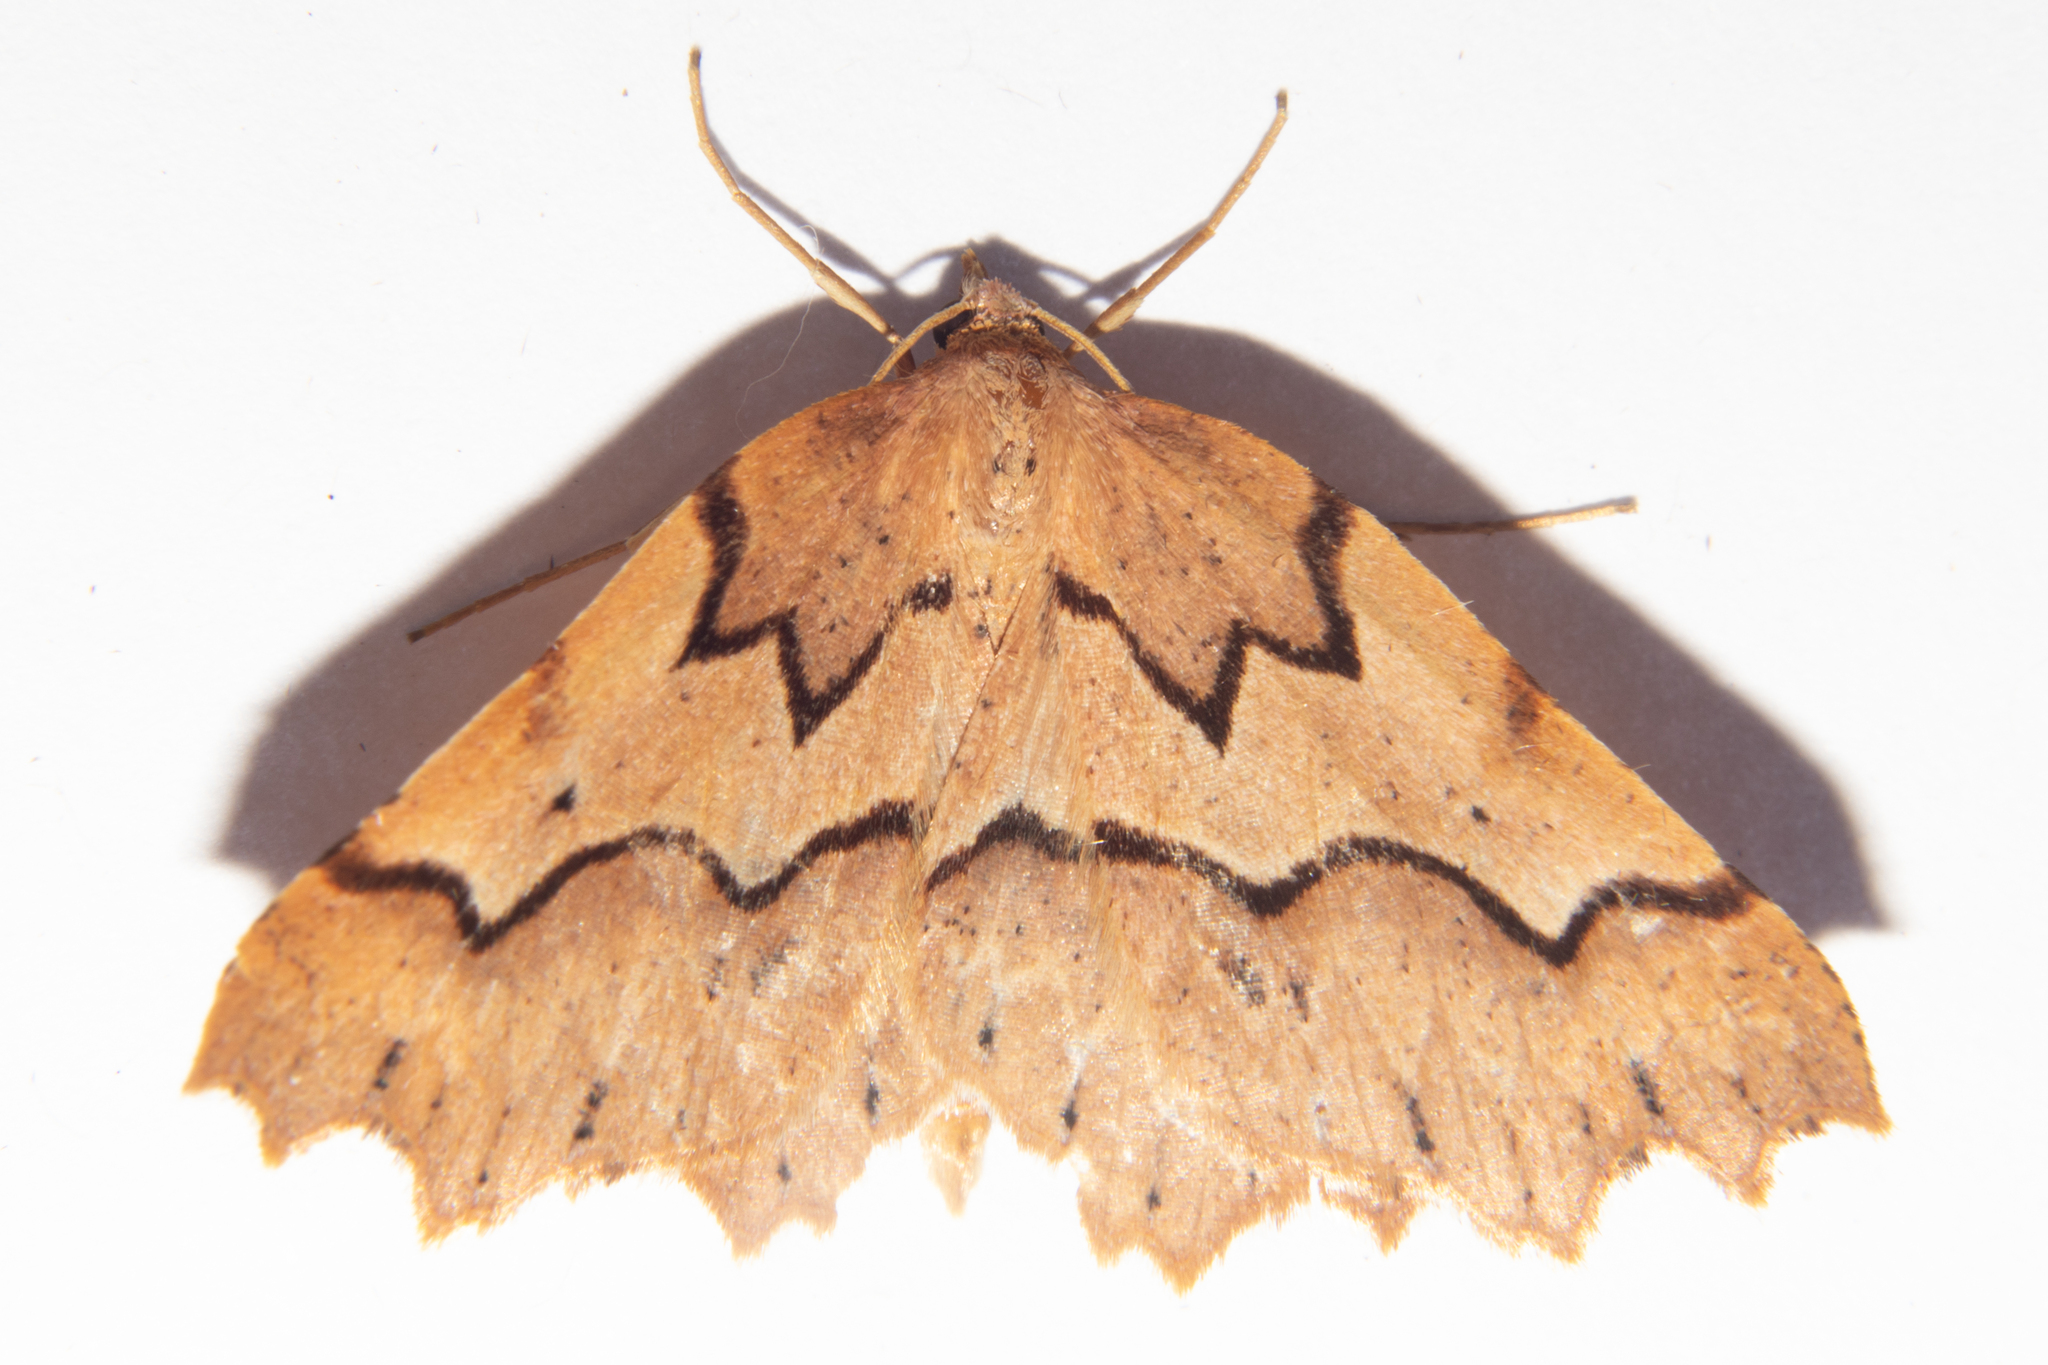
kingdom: Animalia
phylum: Arthropoda
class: Insecta
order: Lepidoptera
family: Geometridae
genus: Ischalis
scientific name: Ischalis fortinata
